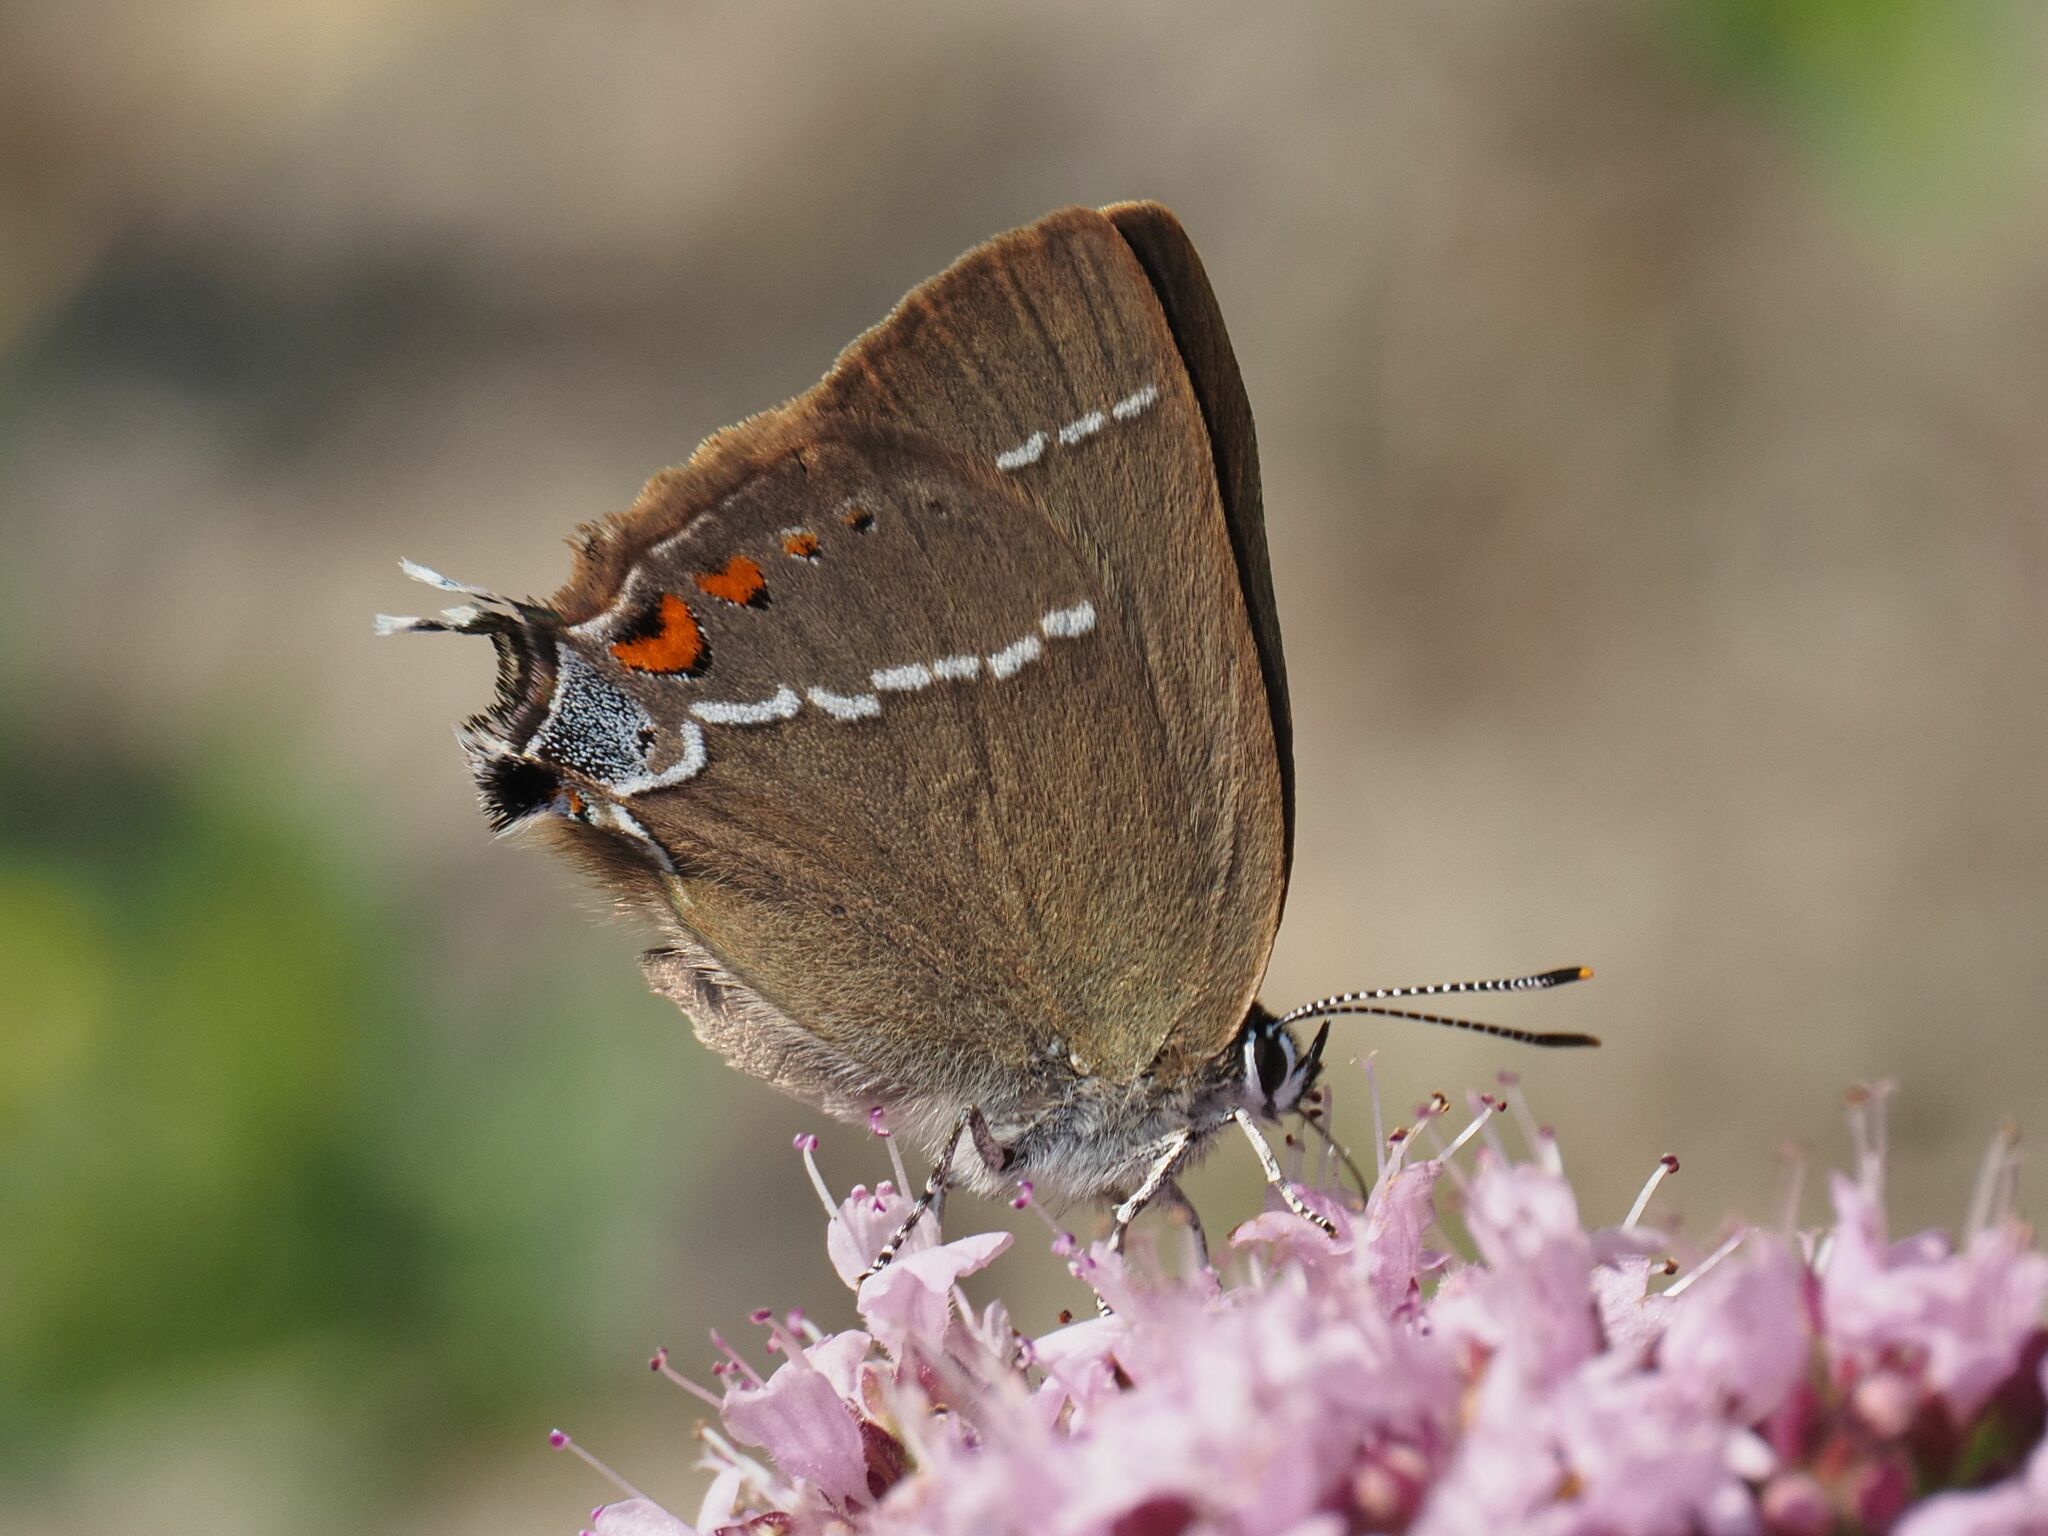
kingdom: Animalia
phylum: Arthropoda
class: Insecta
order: Lepidoptera
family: Lycaenidae
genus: Tuttiola
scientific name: Tuttiola spini
